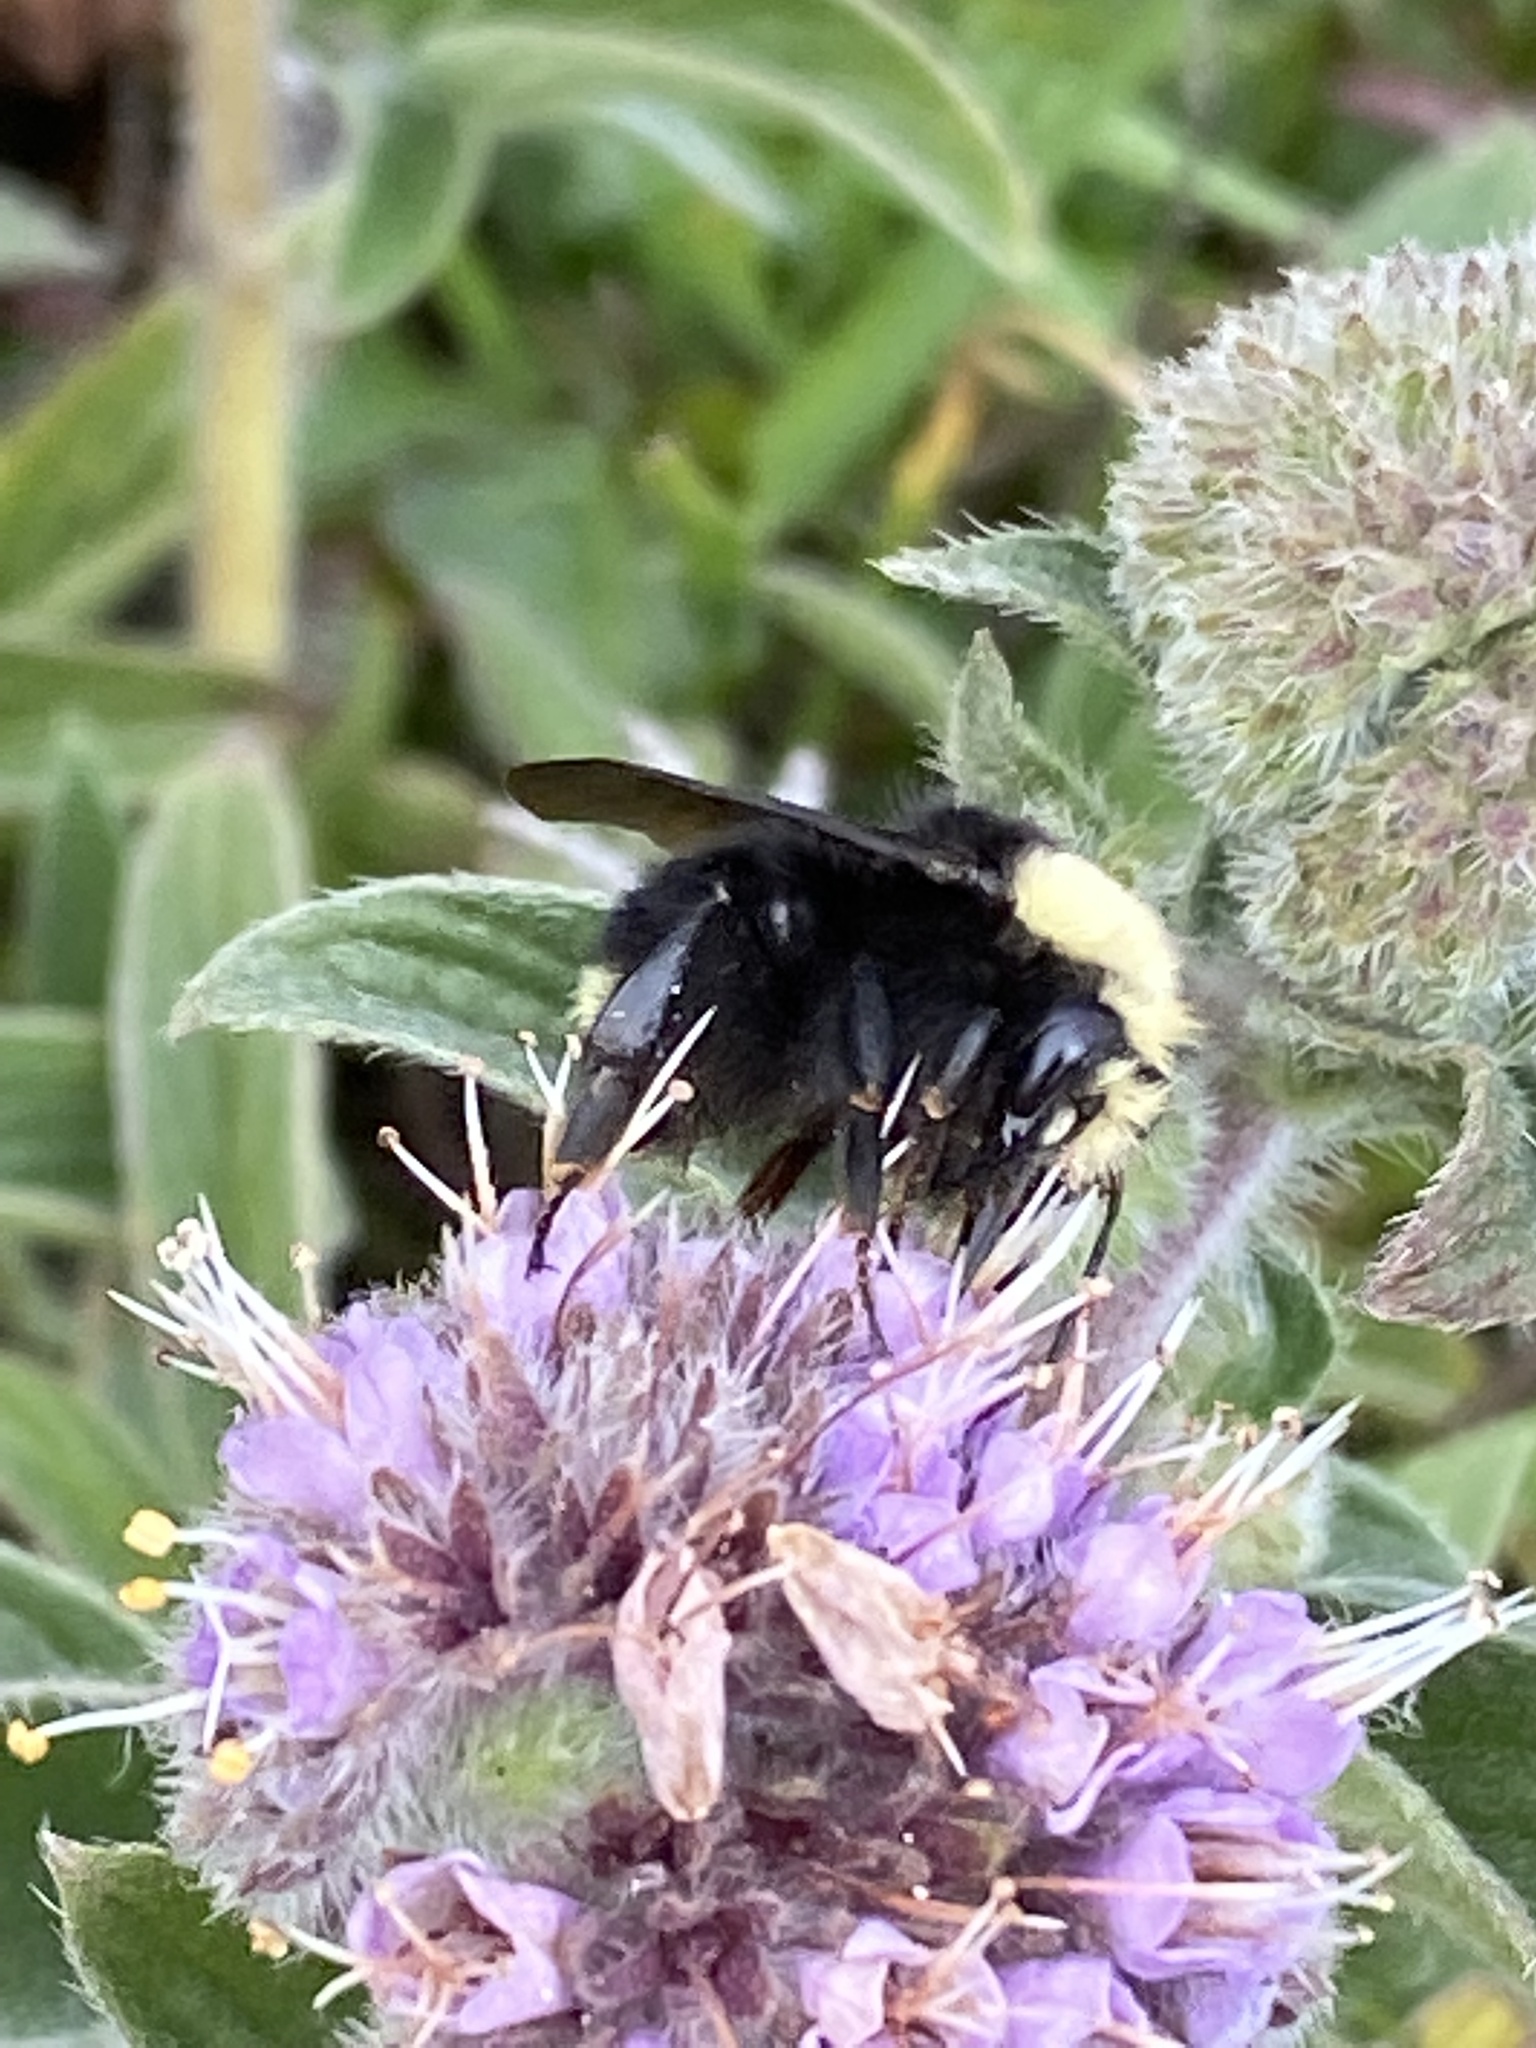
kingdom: Animalia
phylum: Arthropoda
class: Insecta
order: Hymenoptera
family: Apidae
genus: Bombus
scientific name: Bombus vosnesenskii
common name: Vosnesensky bumble bee
